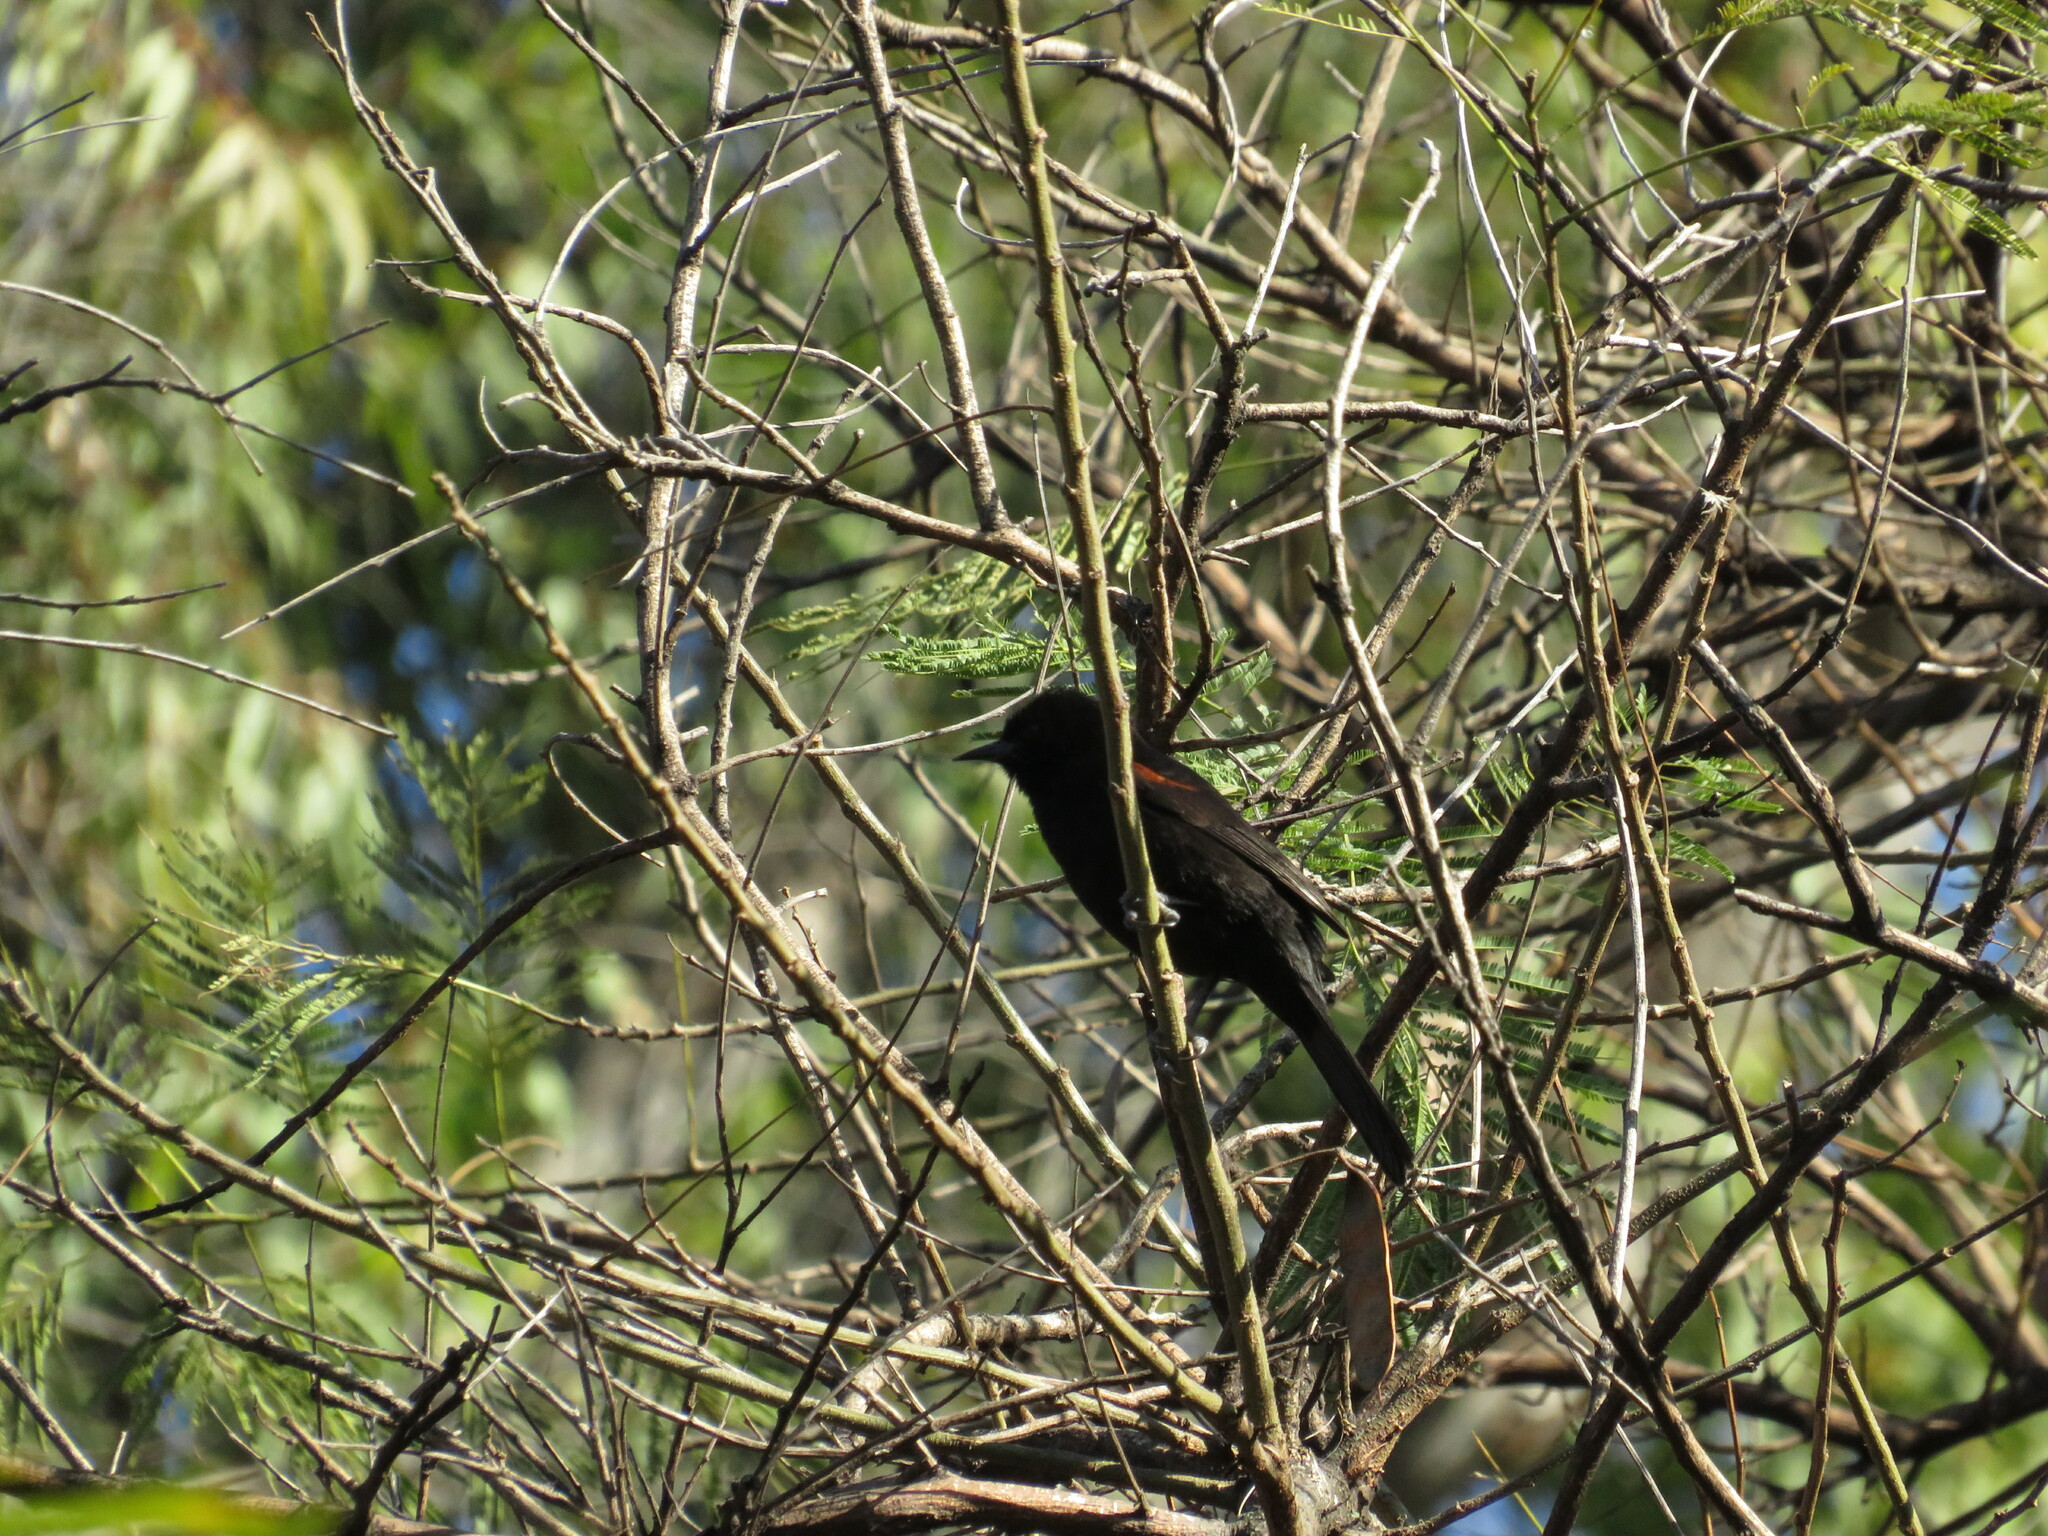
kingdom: Animalia
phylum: Chordata
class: Aves
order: Passeriformes
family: Icteridae
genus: Icterus
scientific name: Icterus cayanensis
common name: Epaulet oriole
